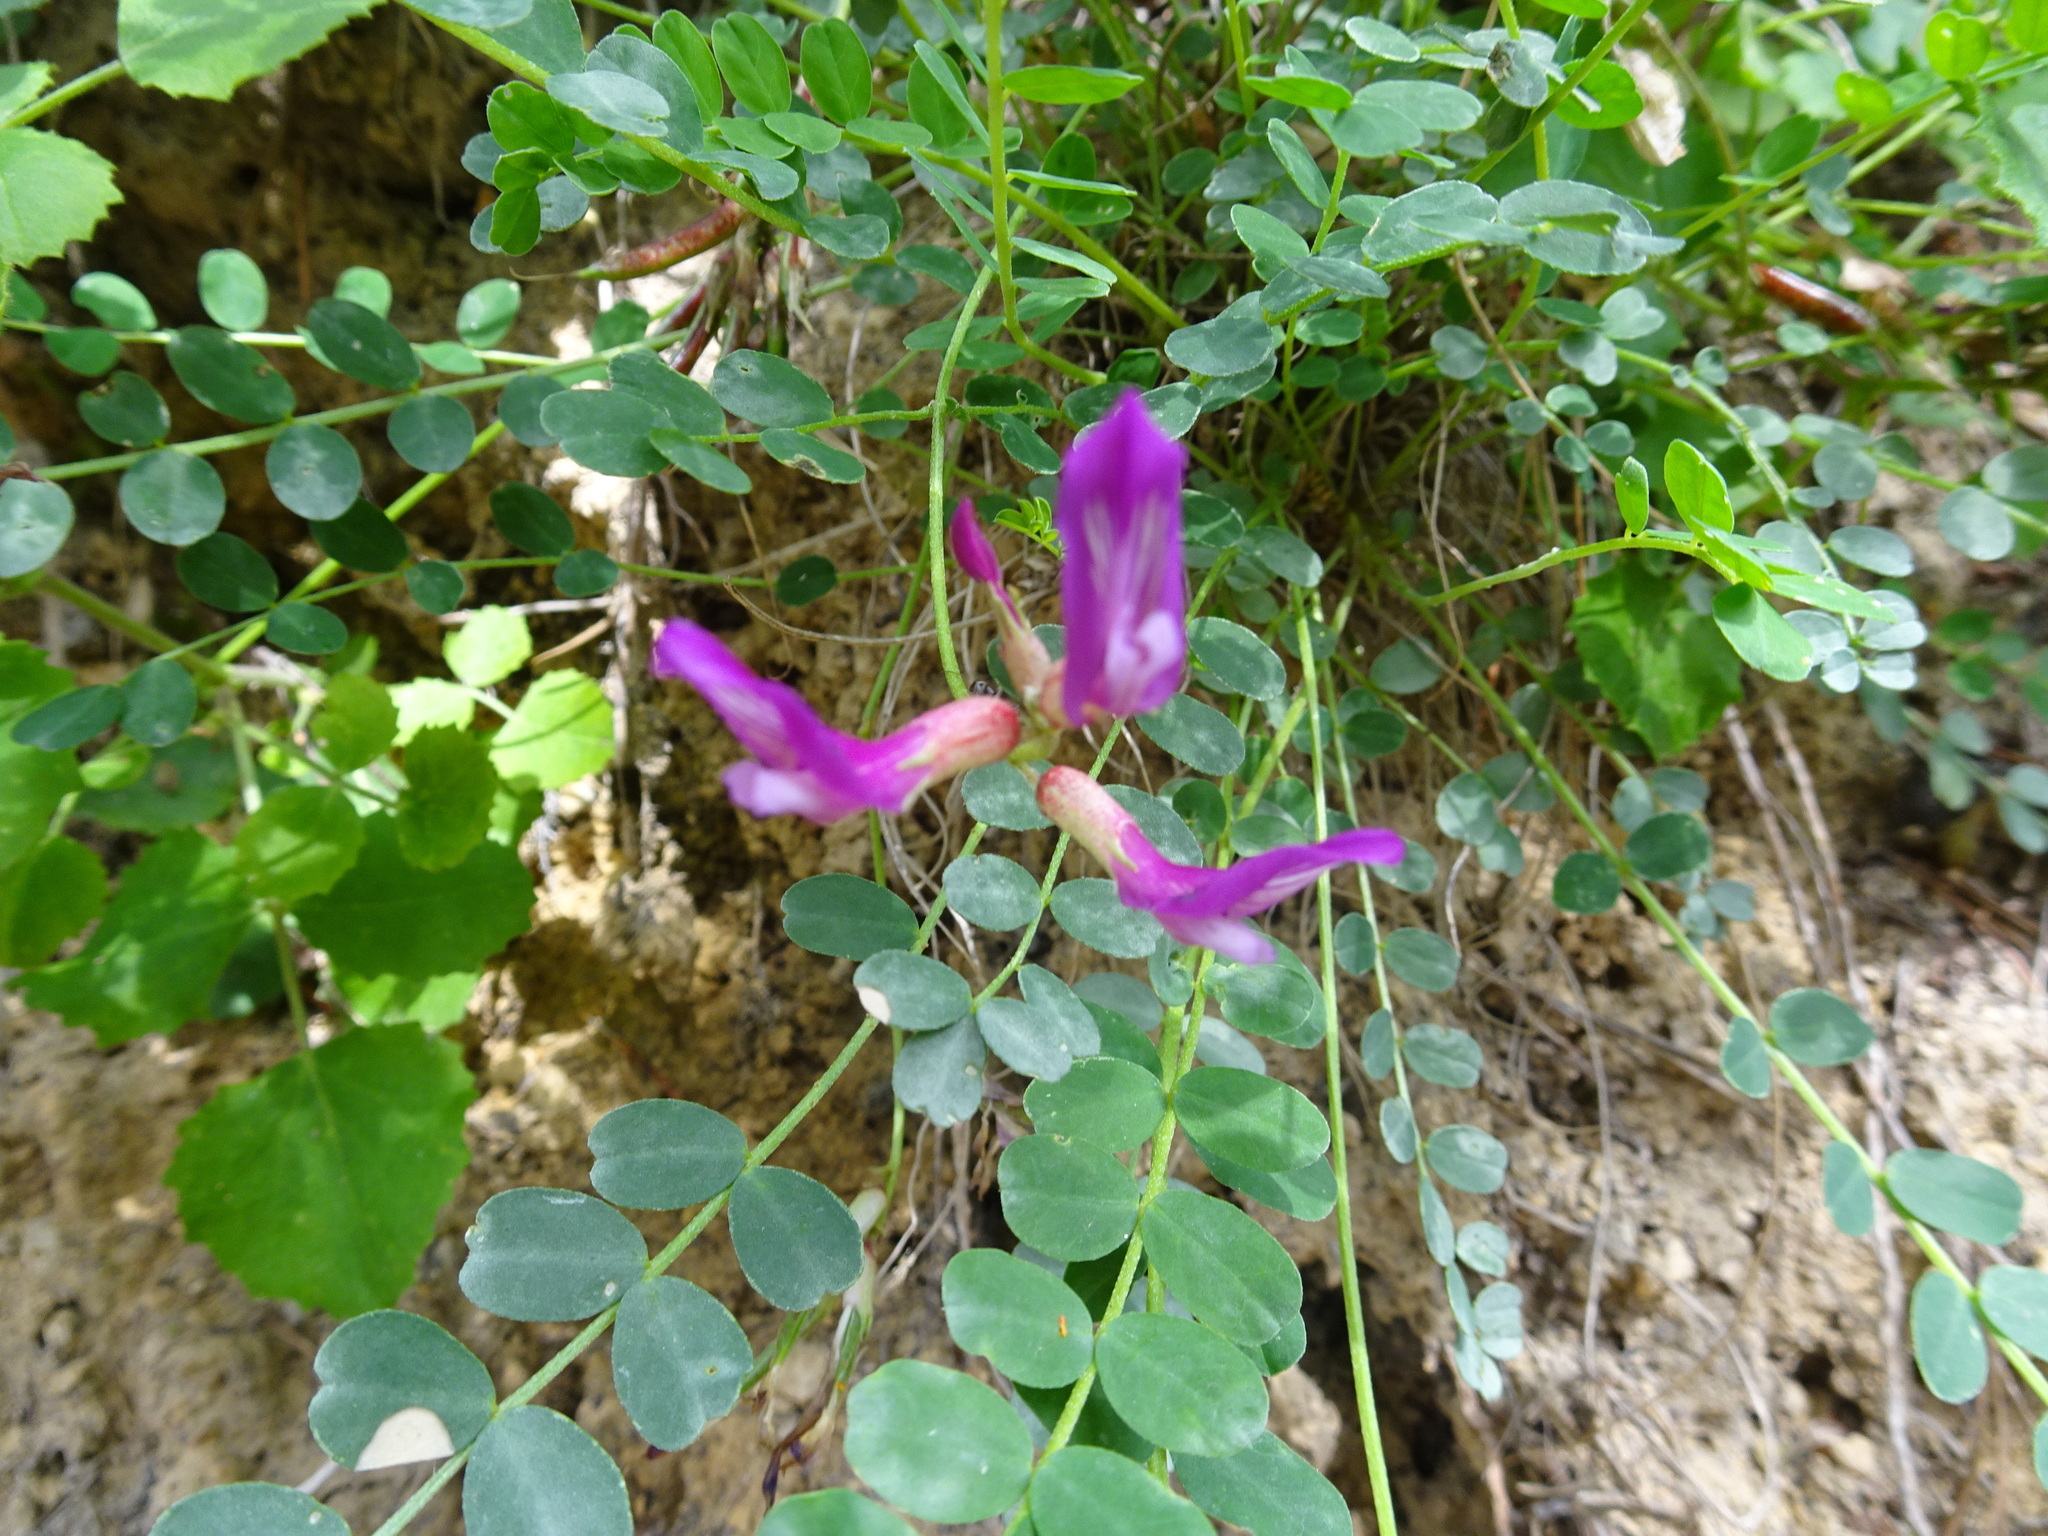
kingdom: Plantae
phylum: Tracheophyta
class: Magnoliopsida
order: Fabales
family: Fabaceae
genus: Astragalus
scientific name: Astragalus monspessulanus
